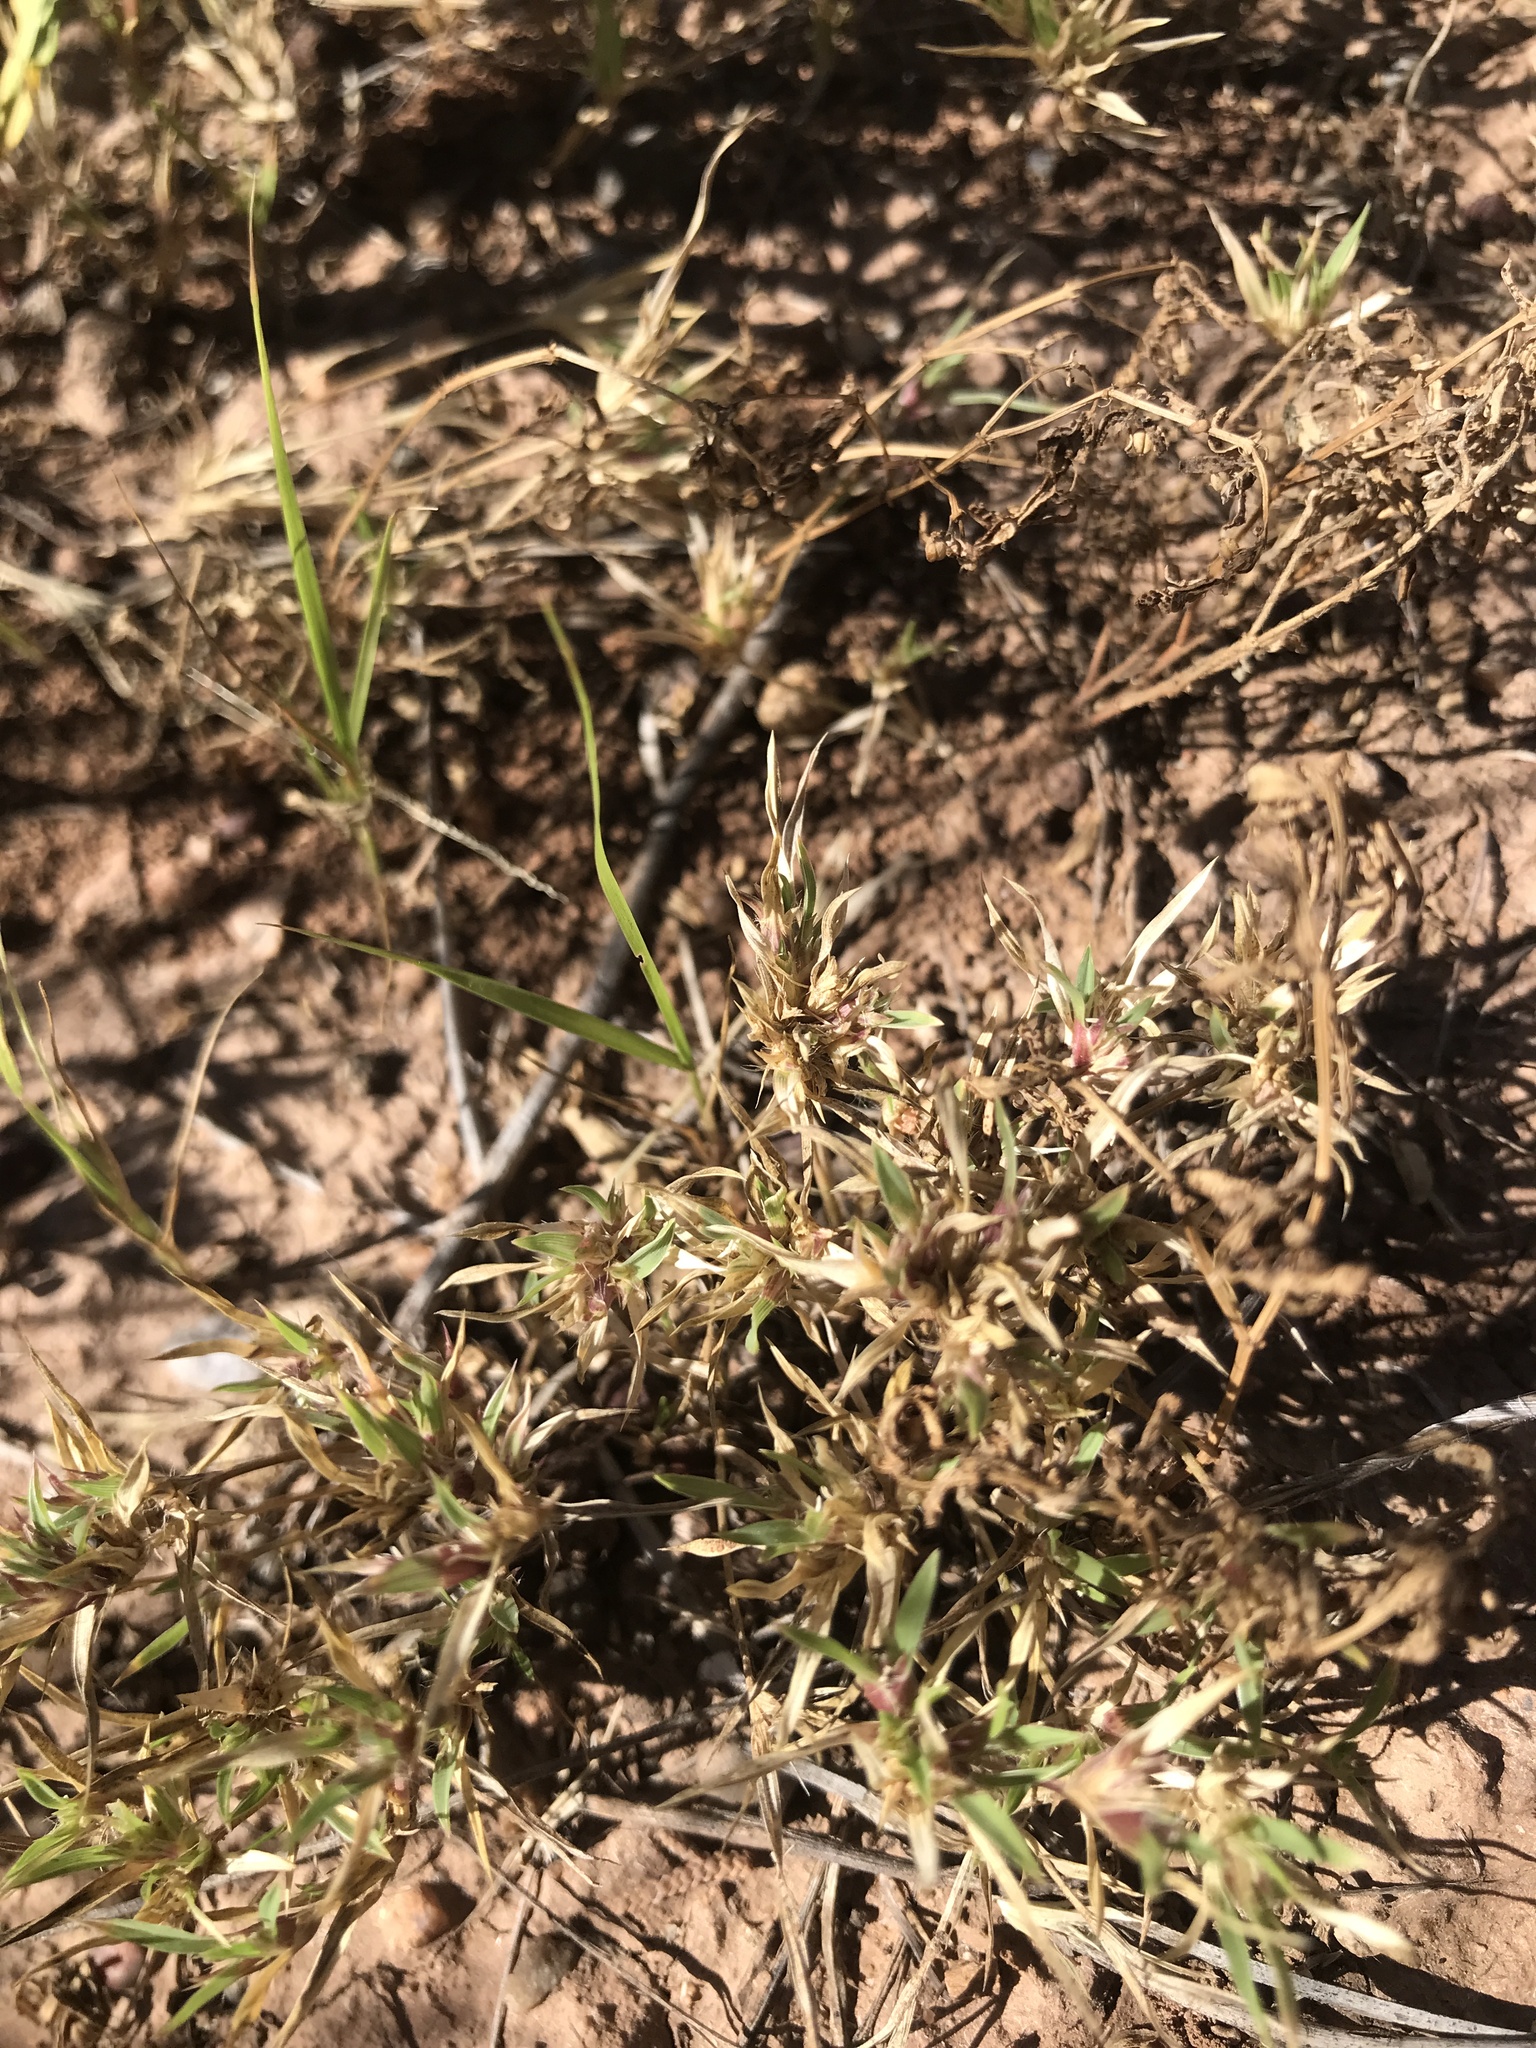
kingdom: Plantae
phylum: Tracheophyta
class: Liliopsida
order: Poales
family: Poaceae
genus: Munroa
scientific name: Munroa squarrosa
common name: False buffalo grass
